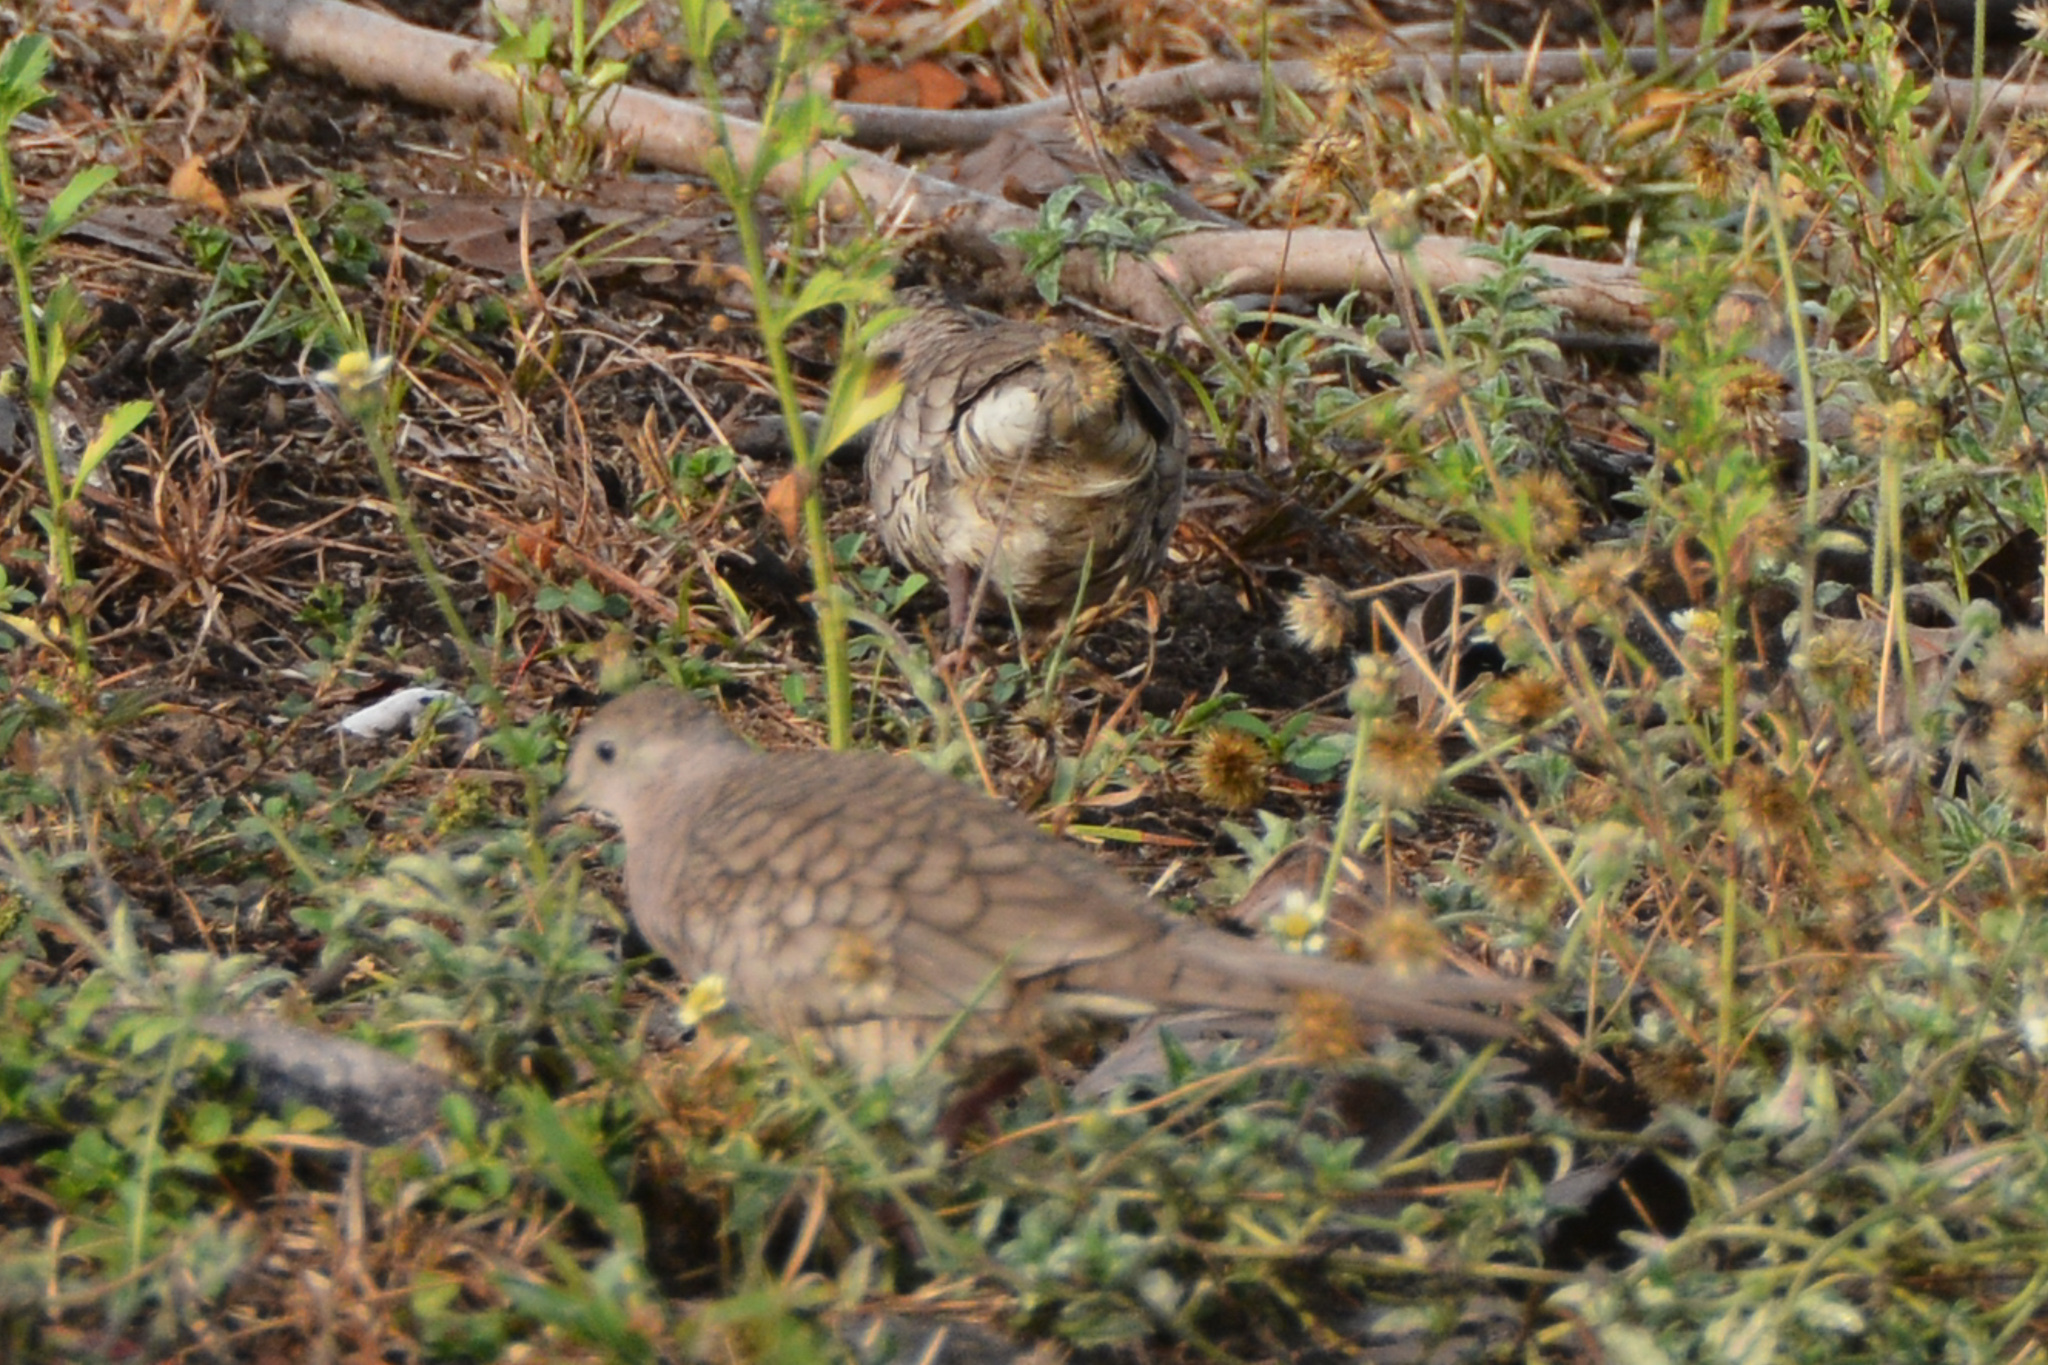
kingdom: Animalia
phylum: Chordata
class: Aves
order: Columbiformes
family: Columbidae
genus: Columbina
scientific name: Columbina inca
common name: Inca dove
